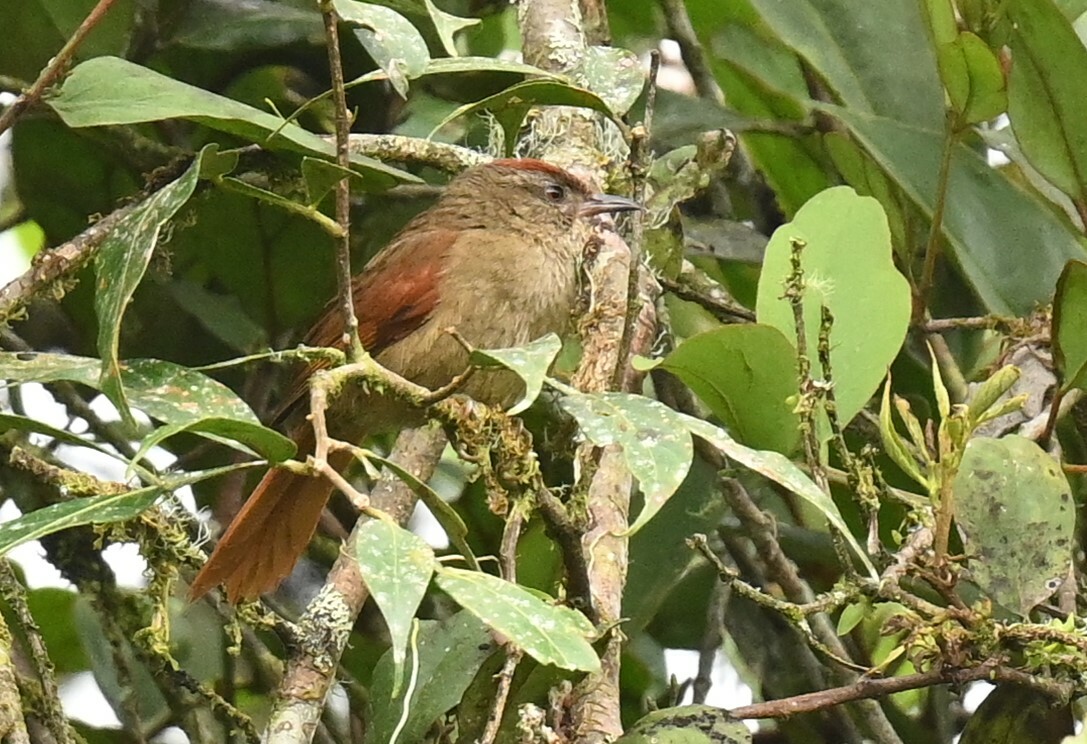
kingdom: Animalia
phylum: Chordata
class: Aves
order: Passeriformes
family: Furnariidae
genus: Cranioleuca
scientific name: Cranioleuca curtata
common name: Ash-browed spinetail
